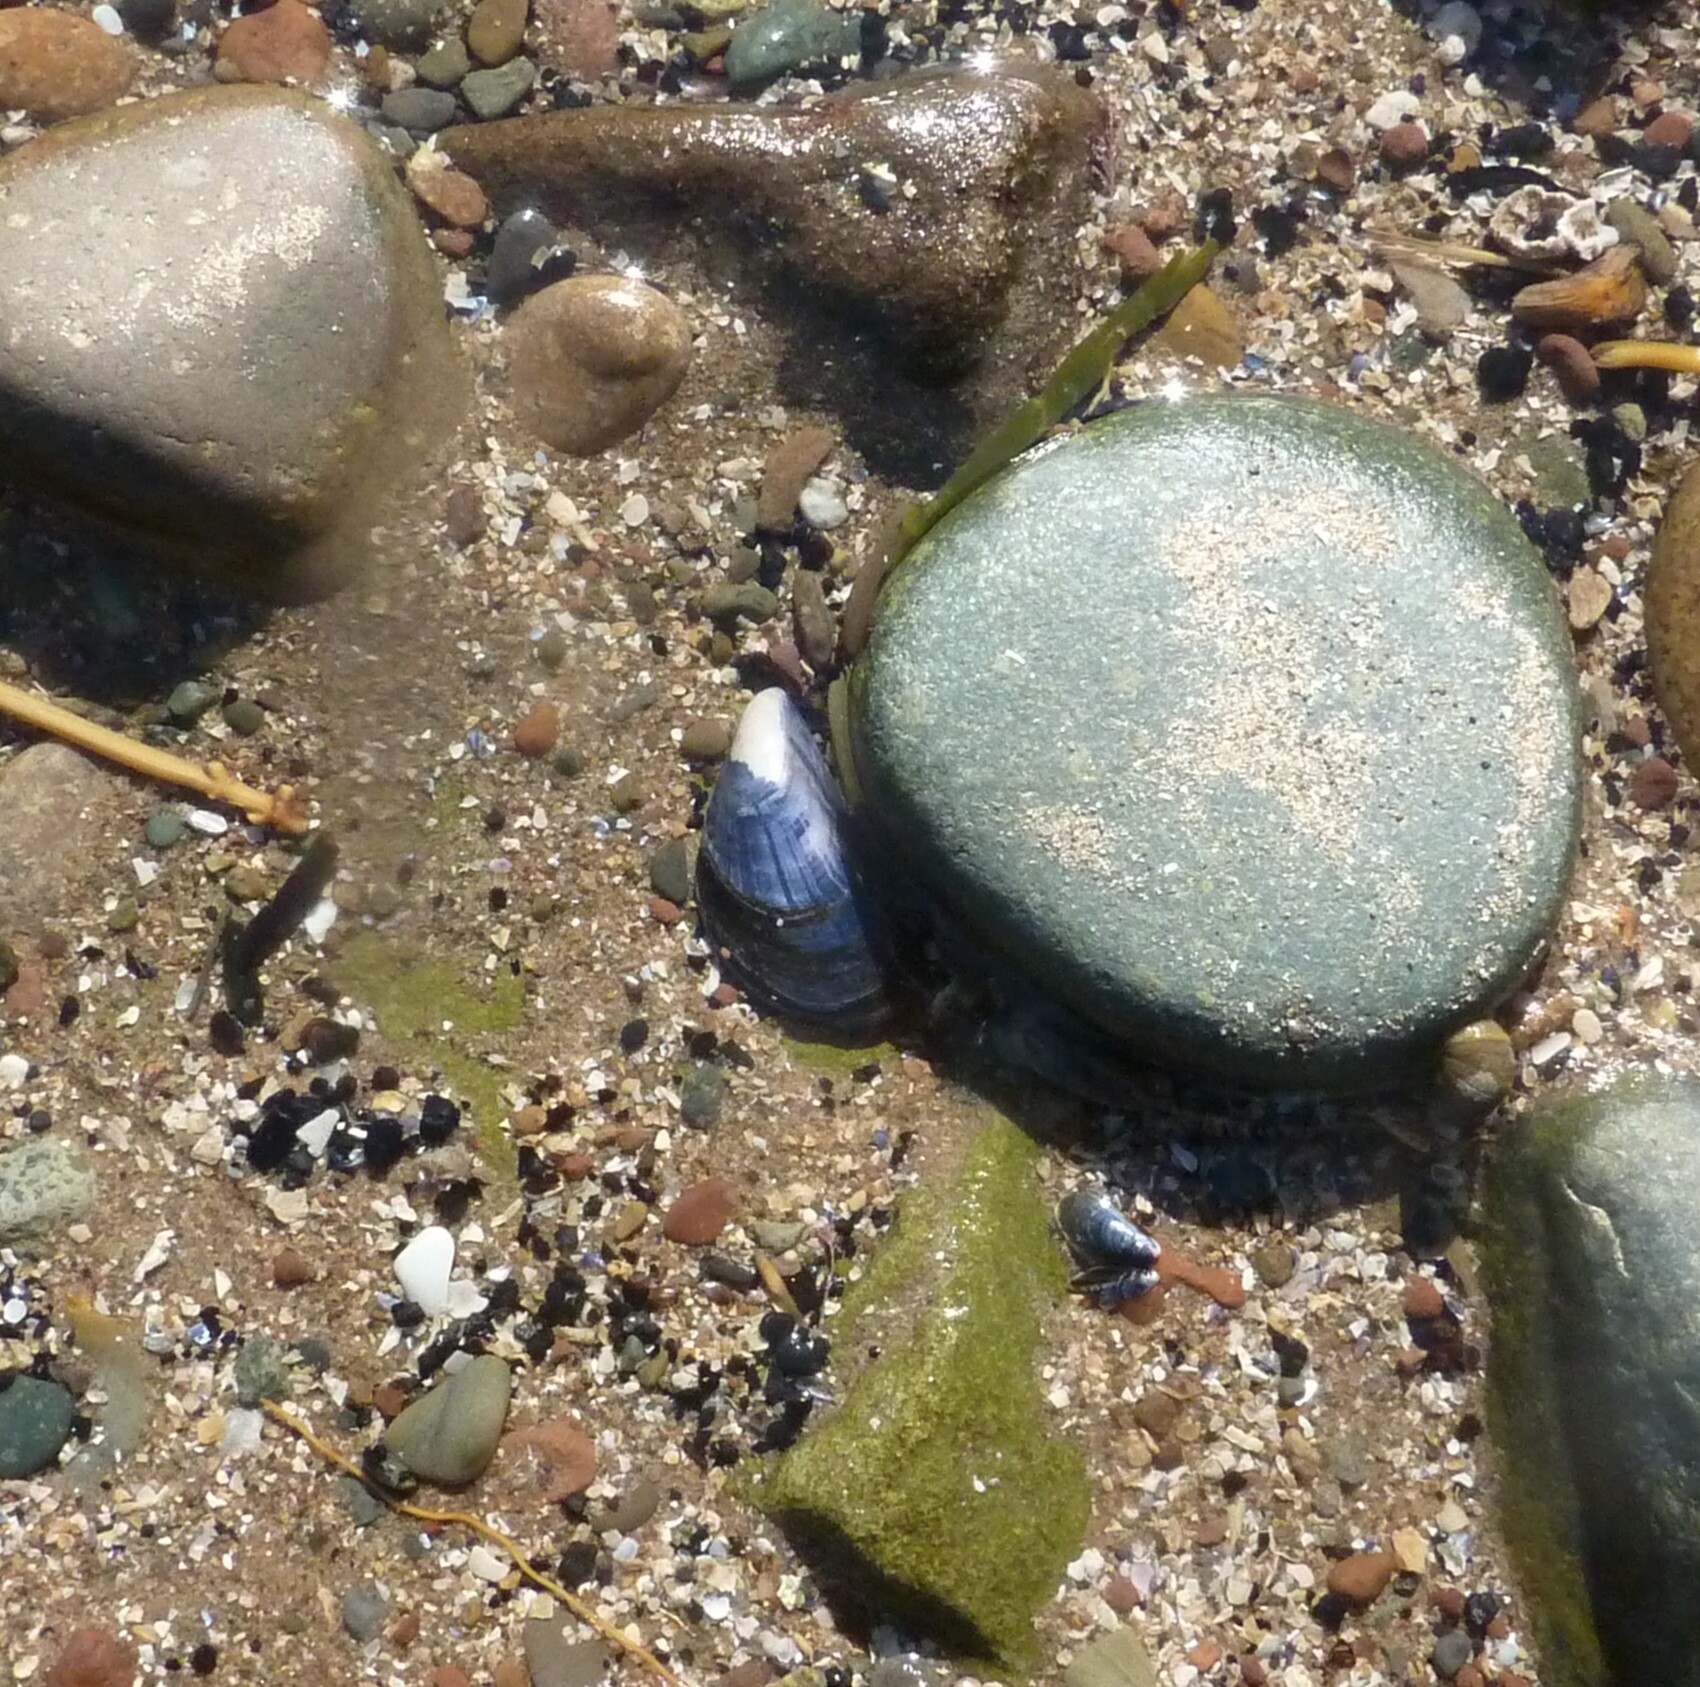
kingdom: Animalia
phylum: Mollusca
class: Bivalvia
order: Mytilida
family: Mytilidae
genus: Mytilus
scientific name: Mytilus edulis
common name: Blue mussel
